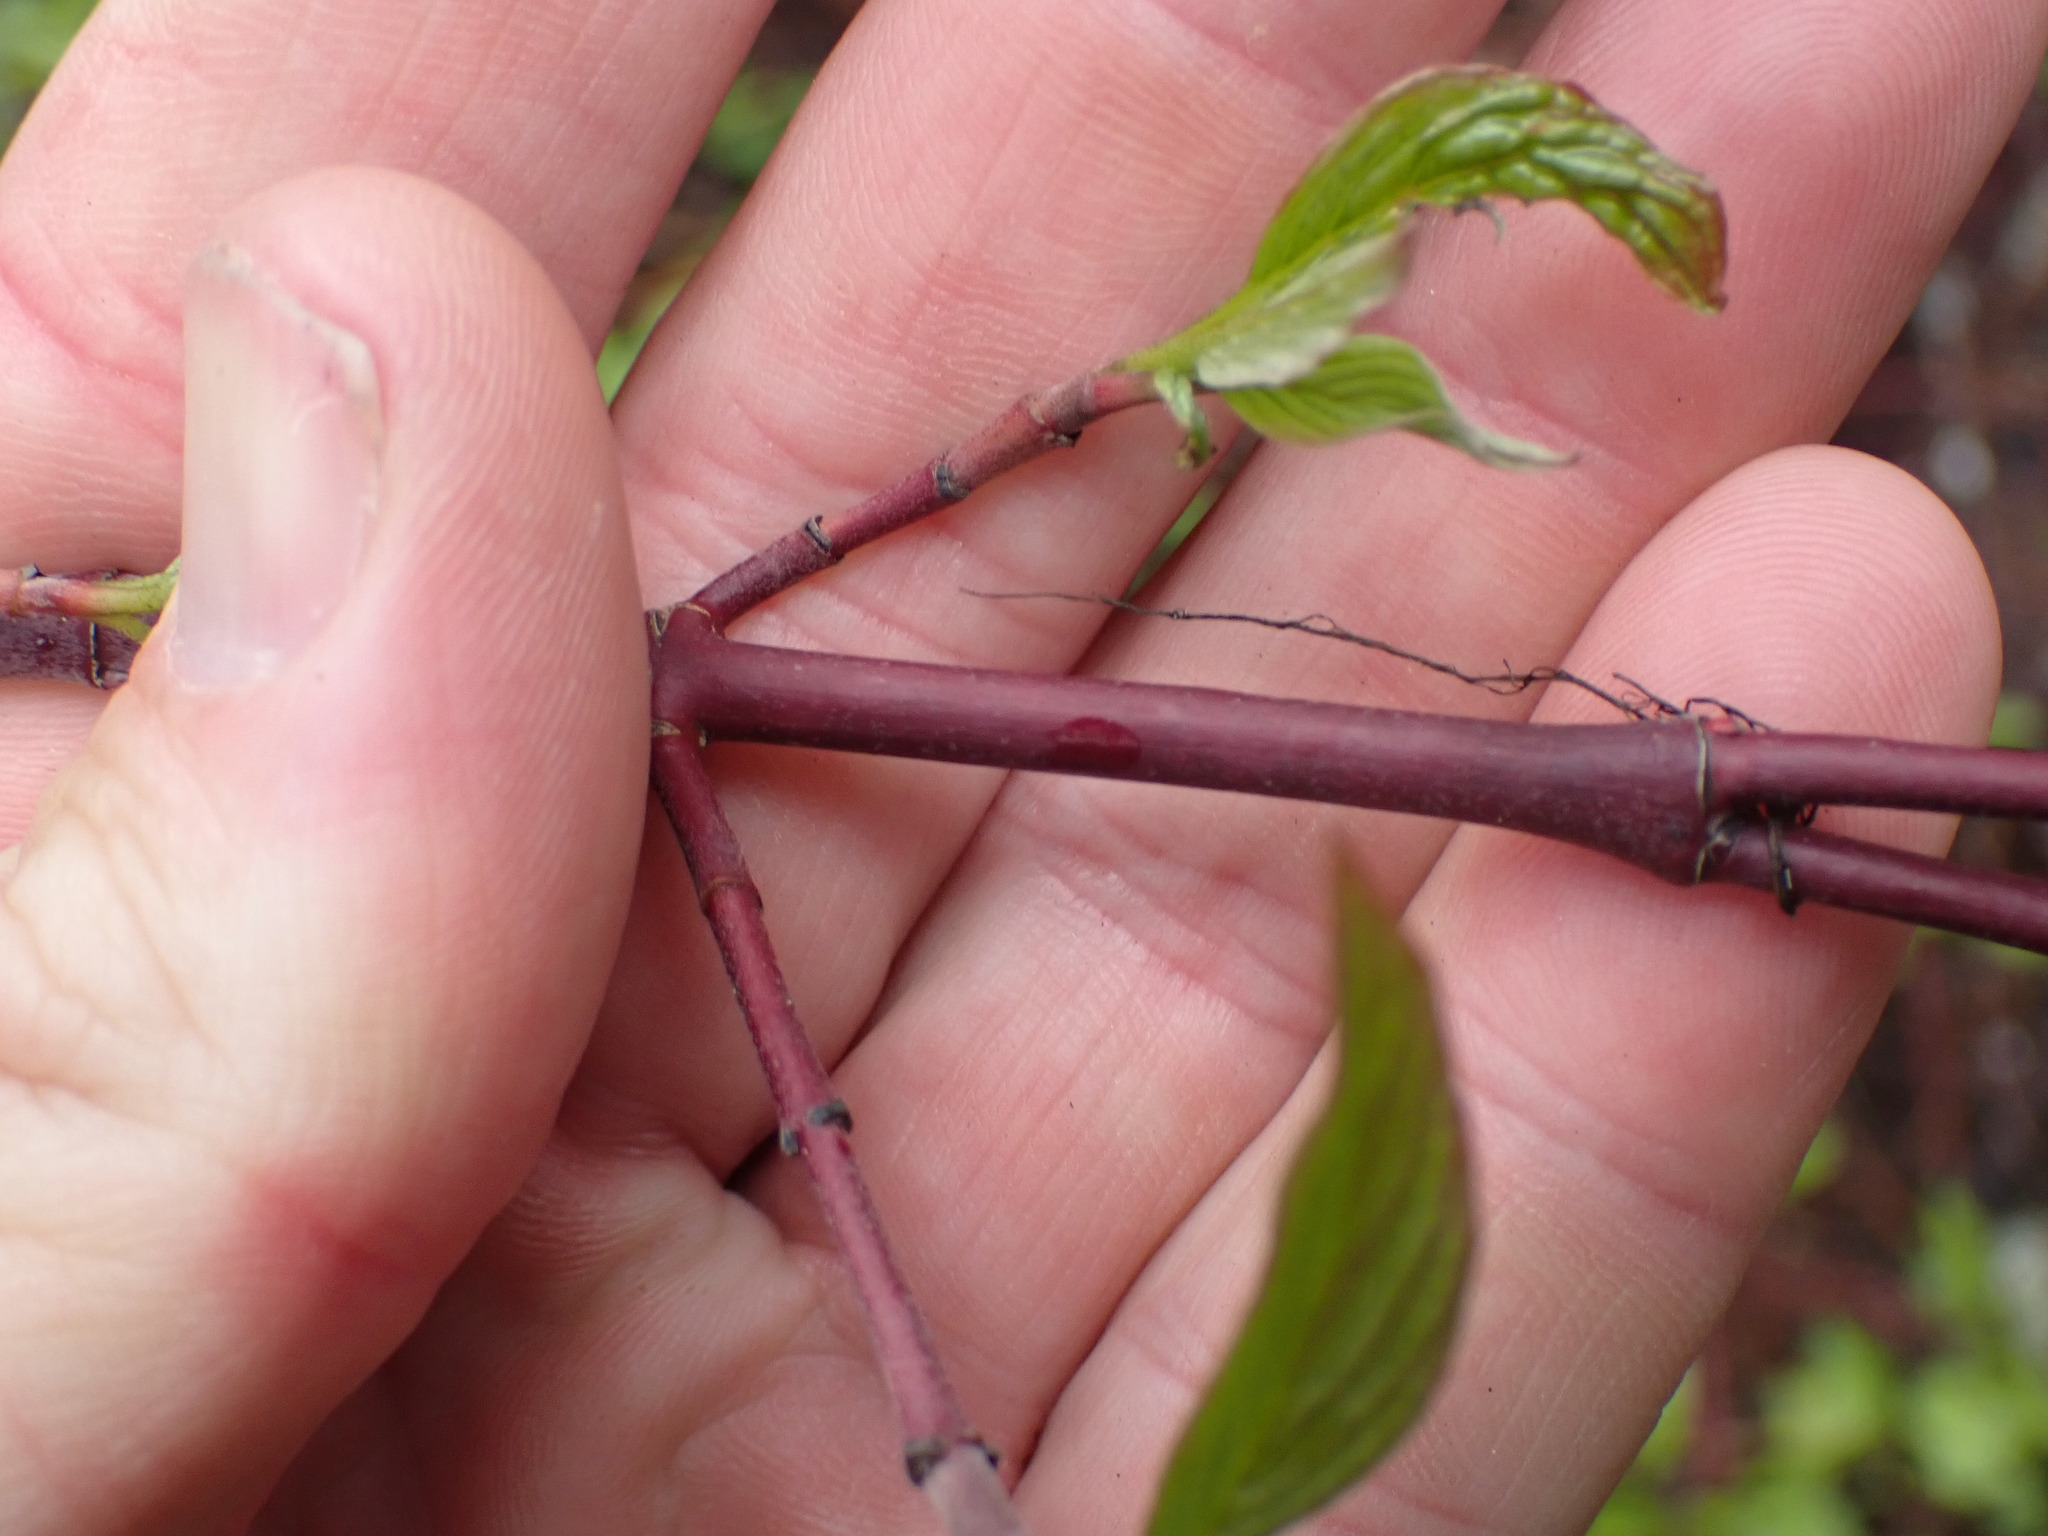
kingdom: Plantae
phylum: Tracheophyta
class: Magnoliopsida
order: Cornales
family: Cornaceae
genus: Cornus
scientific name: Cornus sericea
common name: Red-osier dogwood
